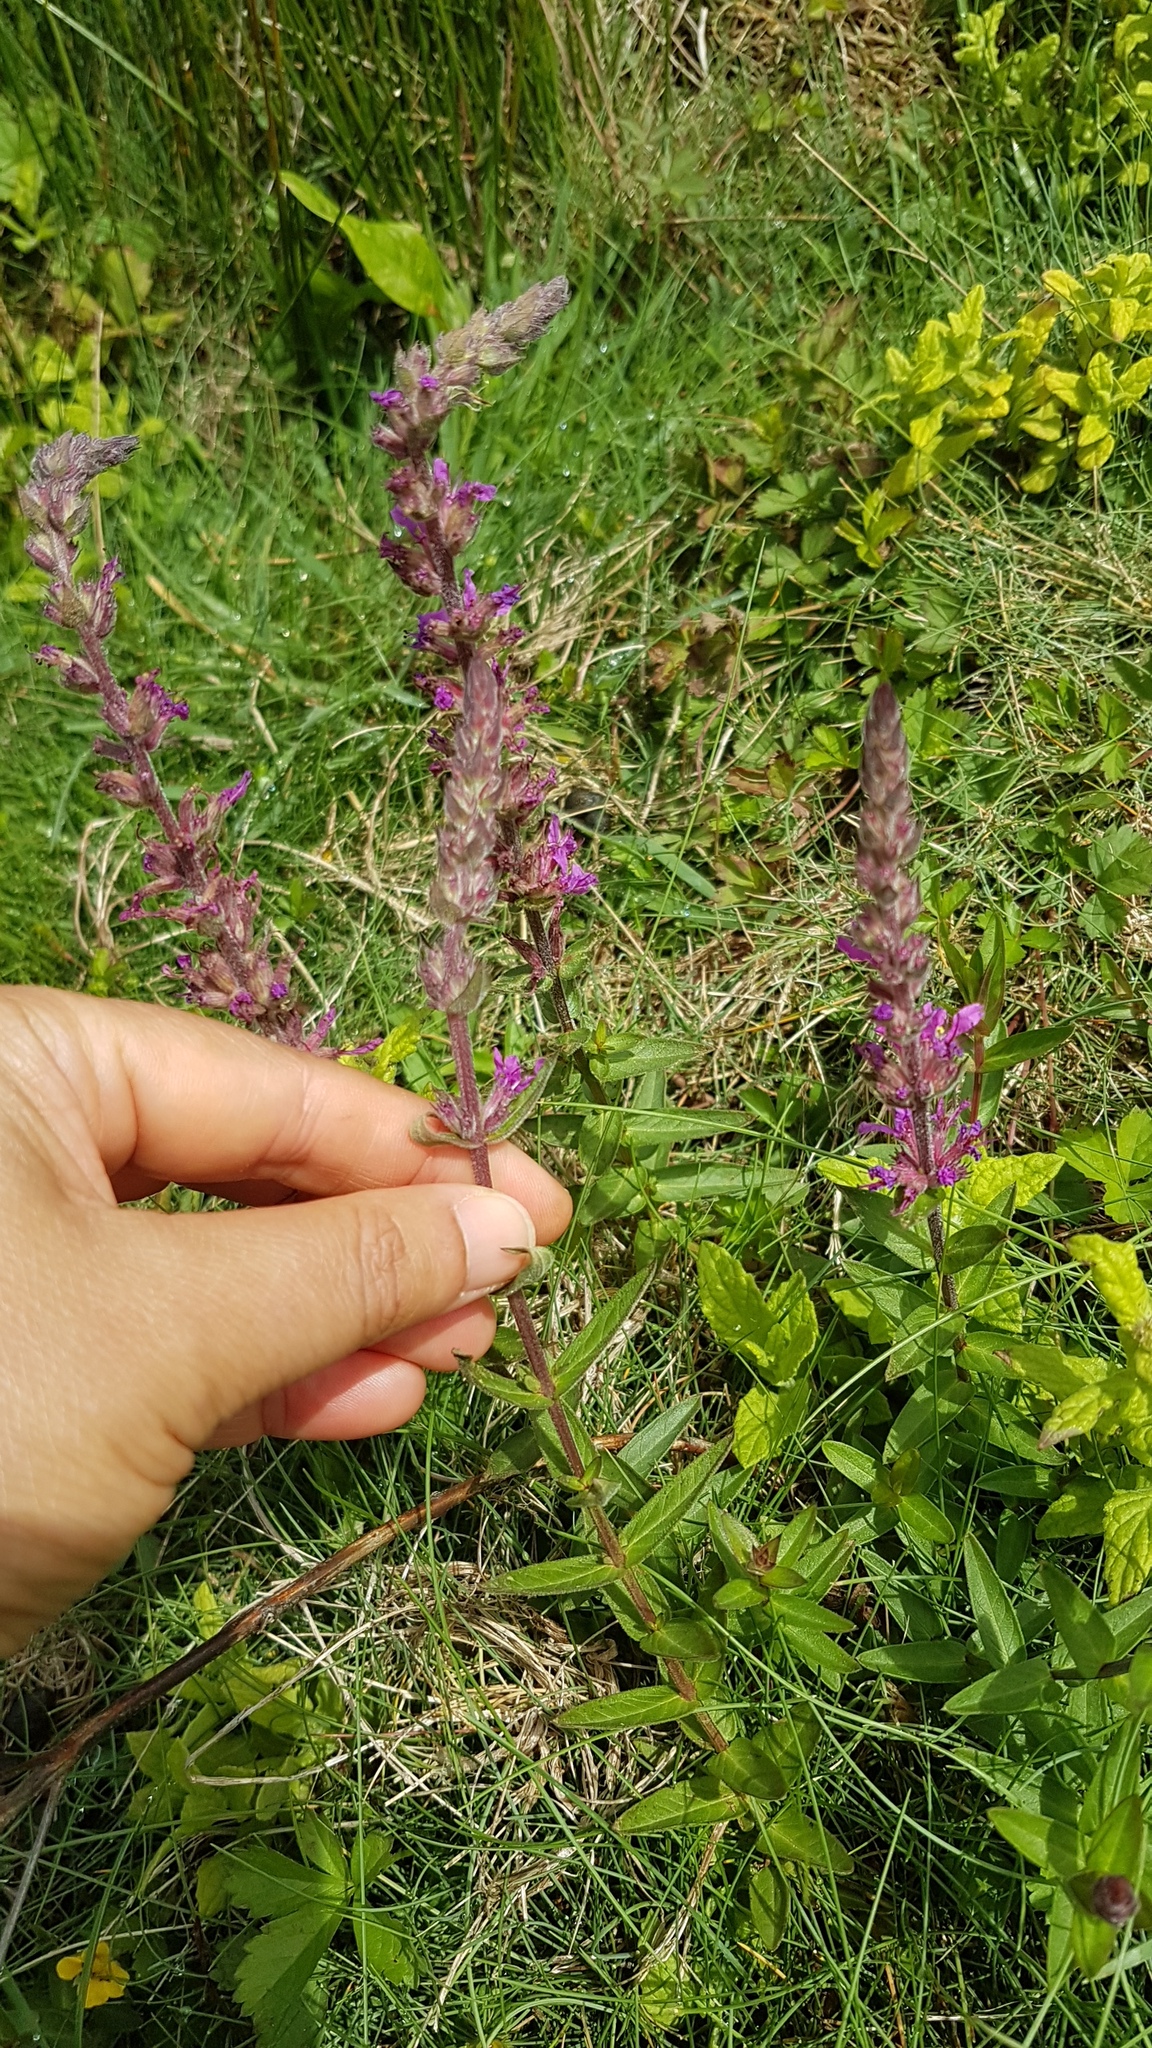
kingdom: Plantae
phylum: Tracheophyta
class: Magnoliopsida
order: Myrtales
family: Lythraceae
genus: Lythrum
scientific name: Lythrum salicaria
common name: Purple loosestrife
